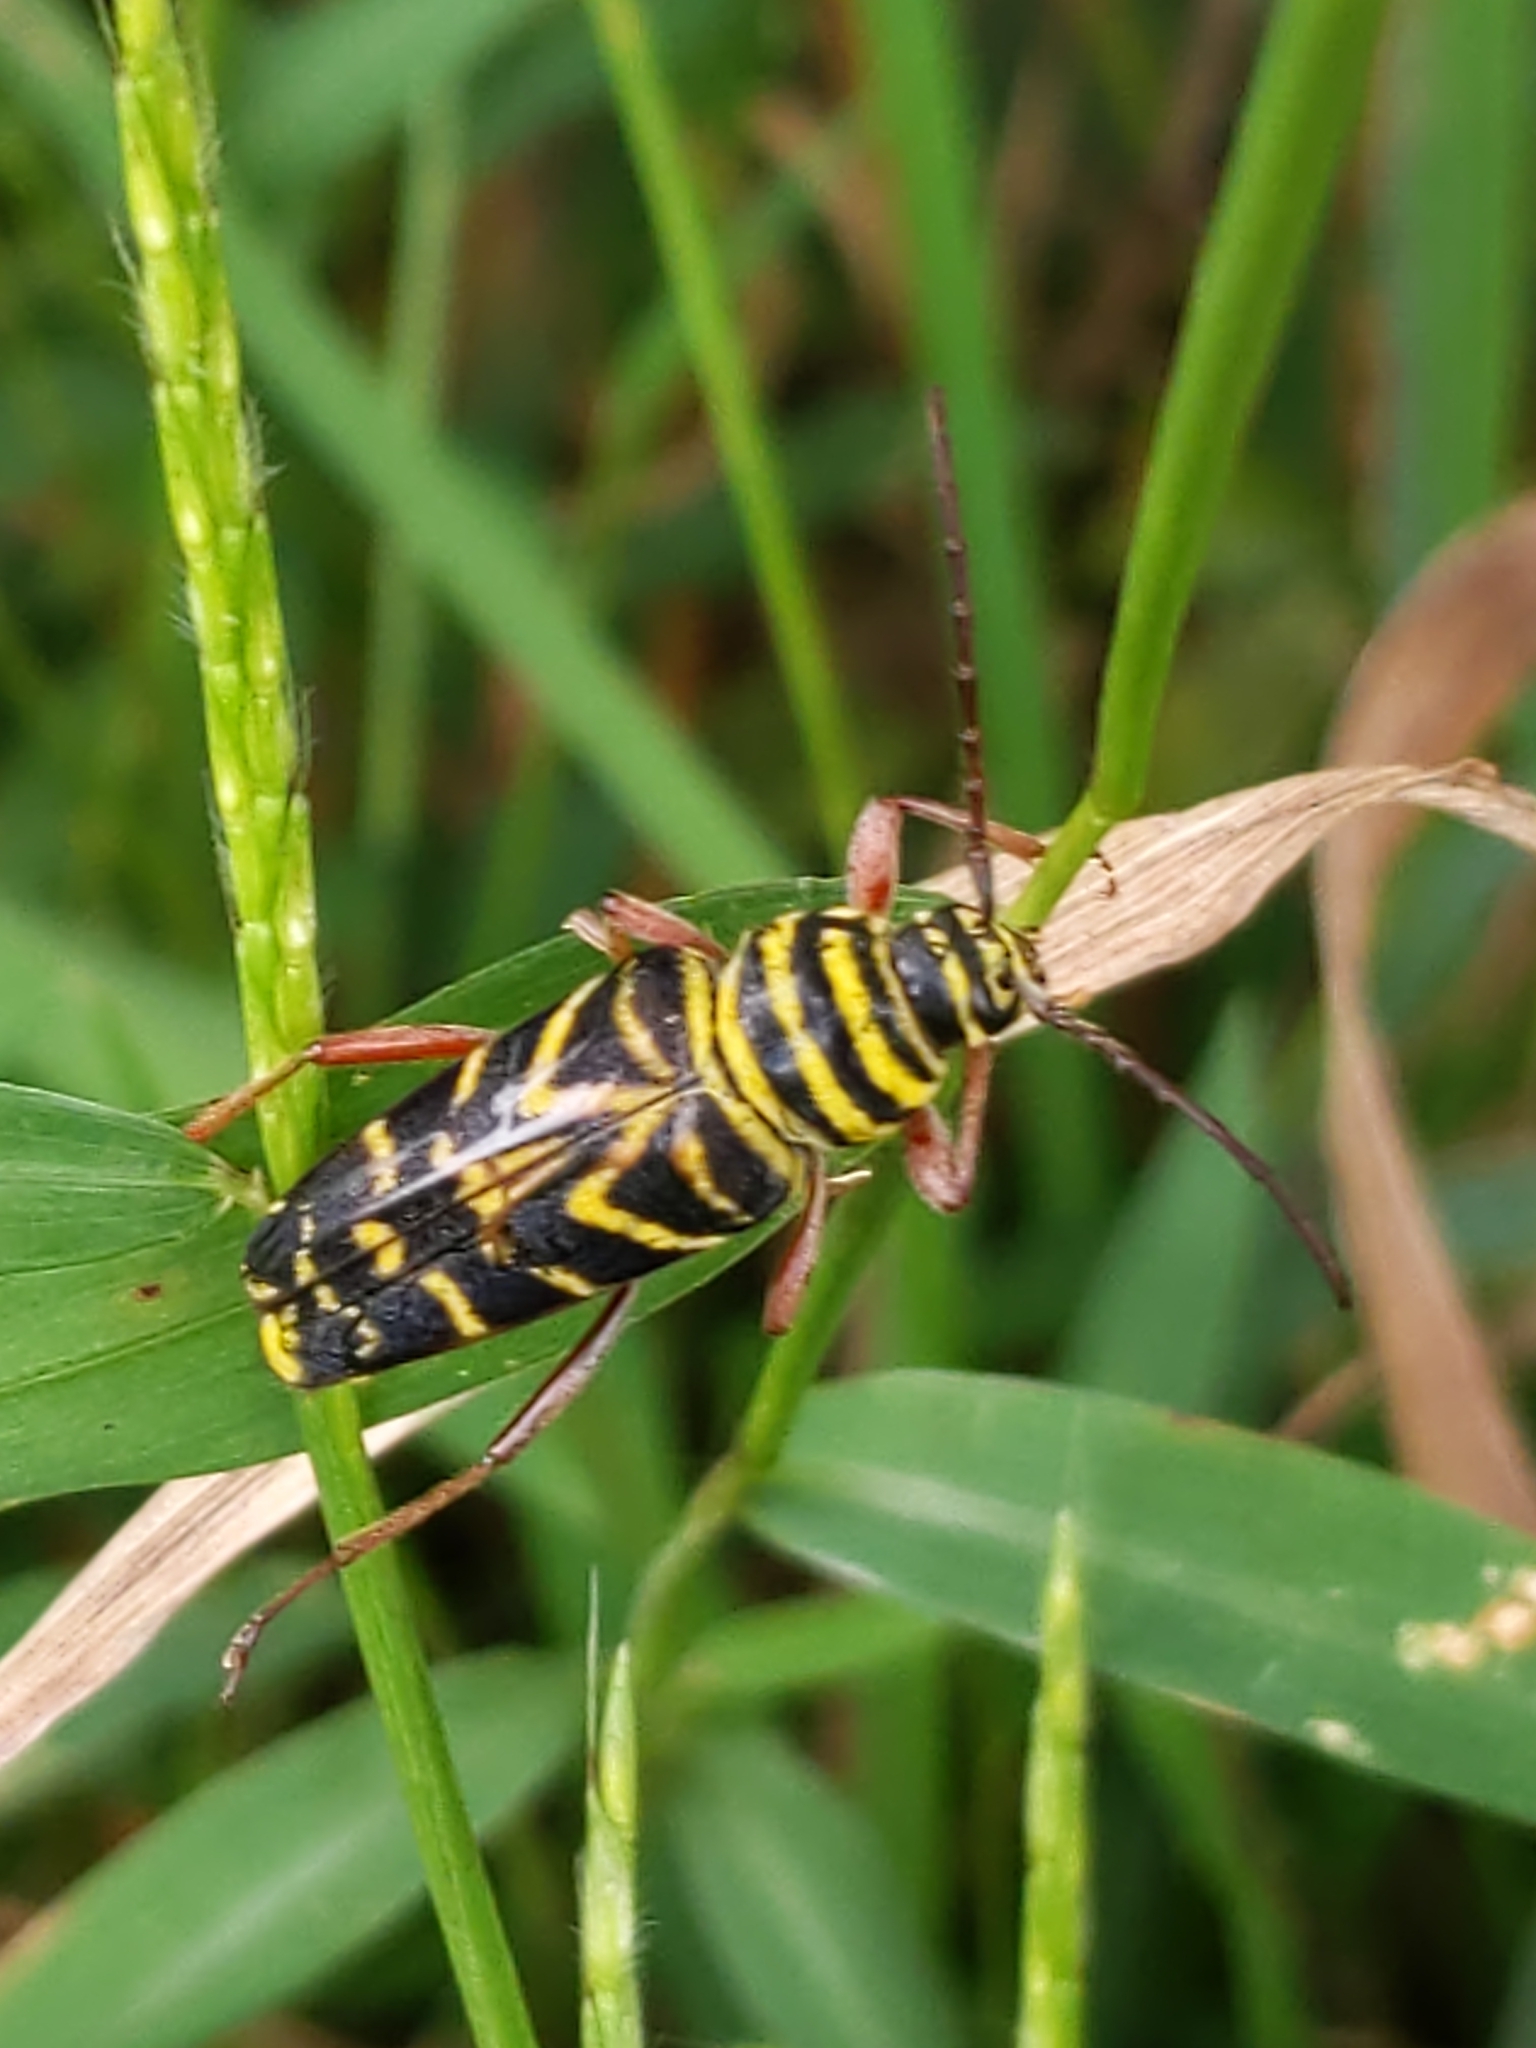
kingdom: Animalia
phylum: Arthropoda
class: Insecta
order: Coleoptera
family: Cerambycidae
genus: Megacyllene
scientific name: Megacyllene robiniae
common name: Locust borer
